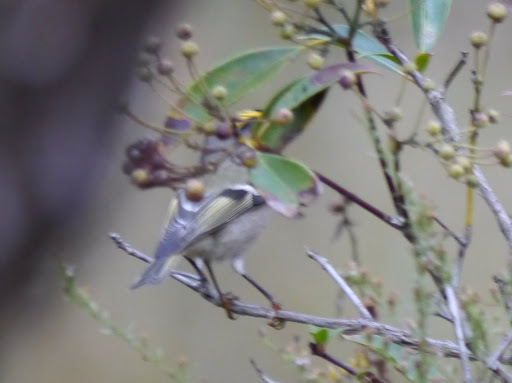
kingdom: Animalia
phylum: Chordata
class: Aves
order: Passeriformes
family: Regulidae
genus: Regulus
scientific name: Regulus satrapa
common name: Golden-crowned kinglet
